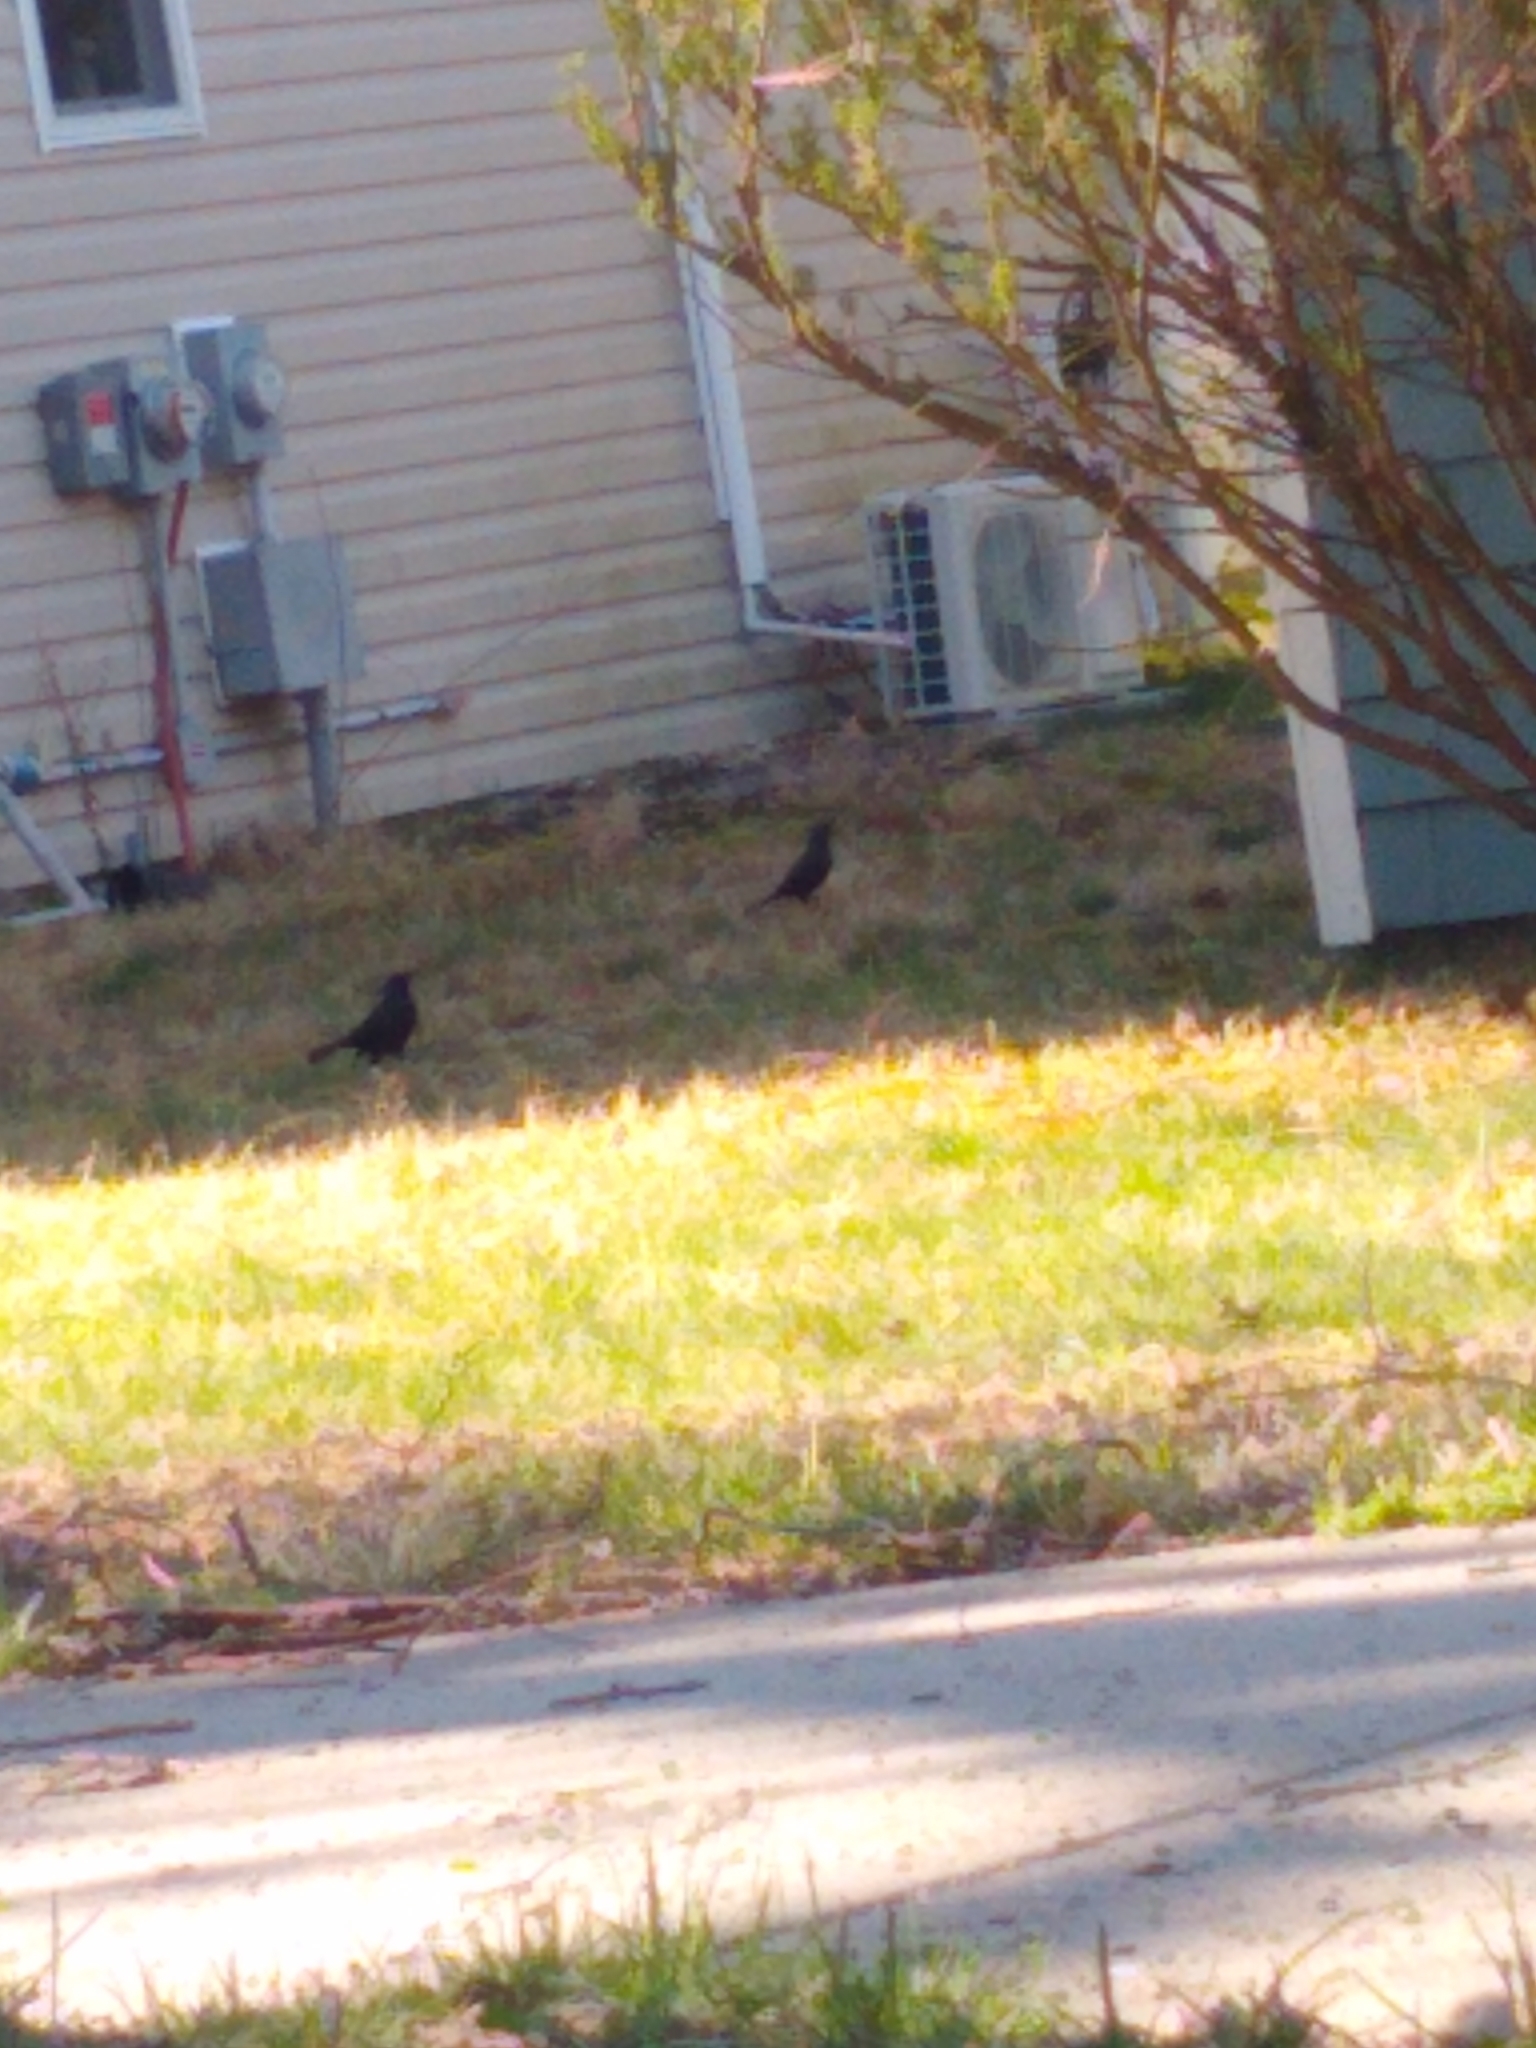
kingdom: Animalia
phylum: Chordata
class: Aves
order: Passeriformes
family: Icteridae
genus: Quiscalus
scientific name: Quiscalus quiscula
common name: Common grackle
